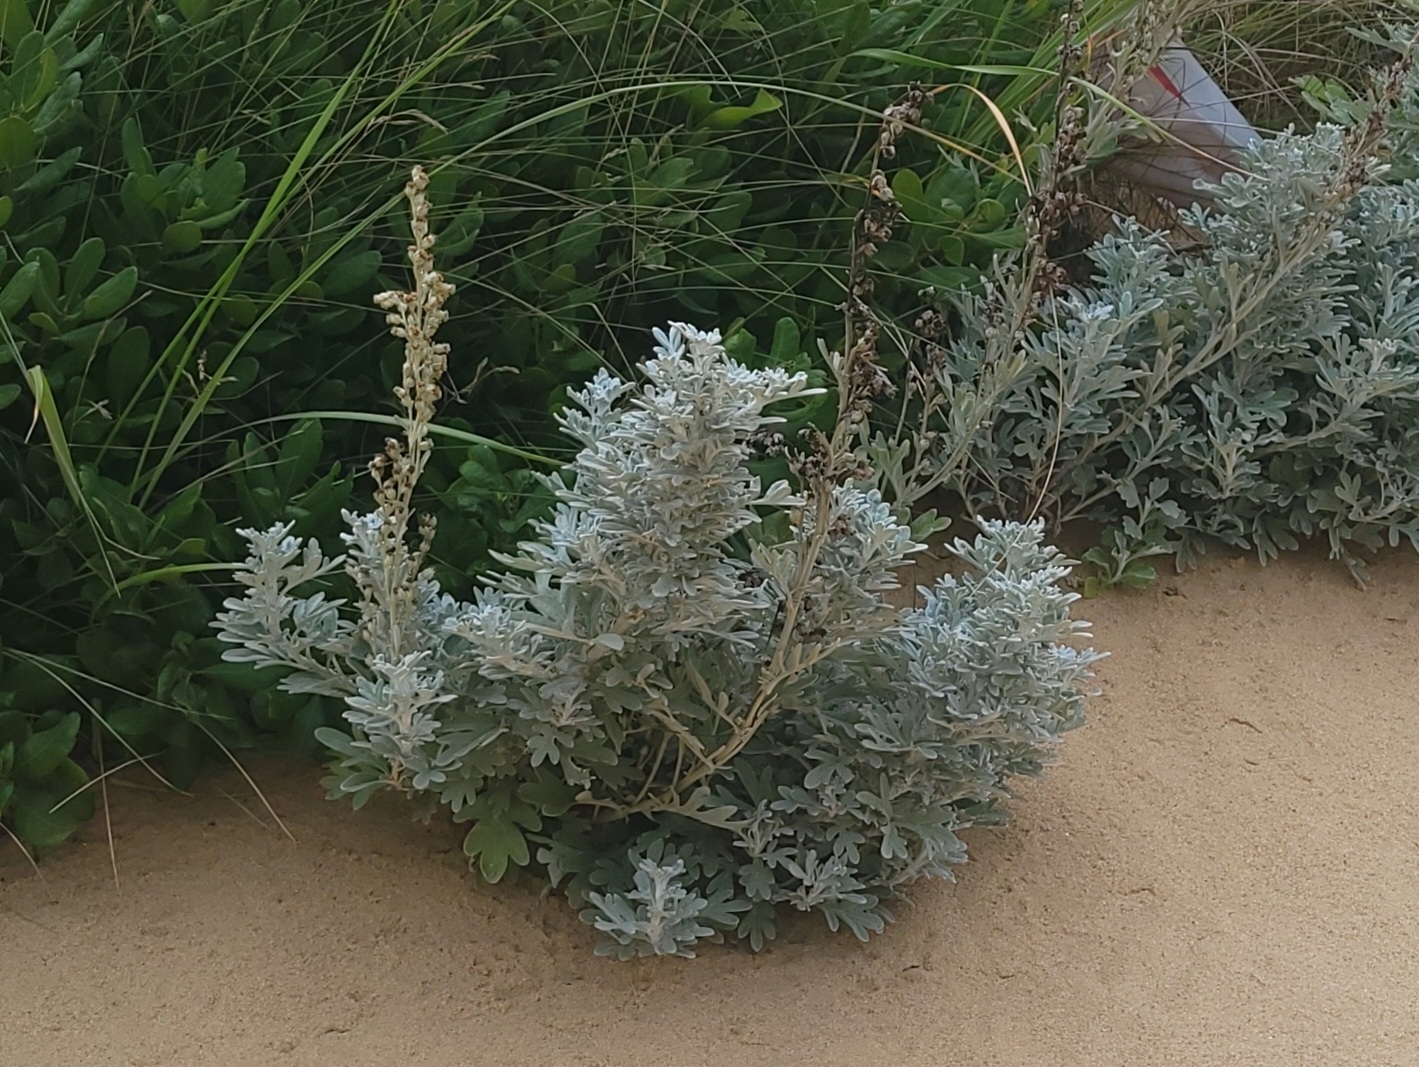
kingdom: Plantae
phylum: Tracheophyta
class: Magnoliopsida
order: Asterales
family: Asteraceae
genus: Artemisia
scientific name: Artemisia stelleriana
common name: Beach wormwood
